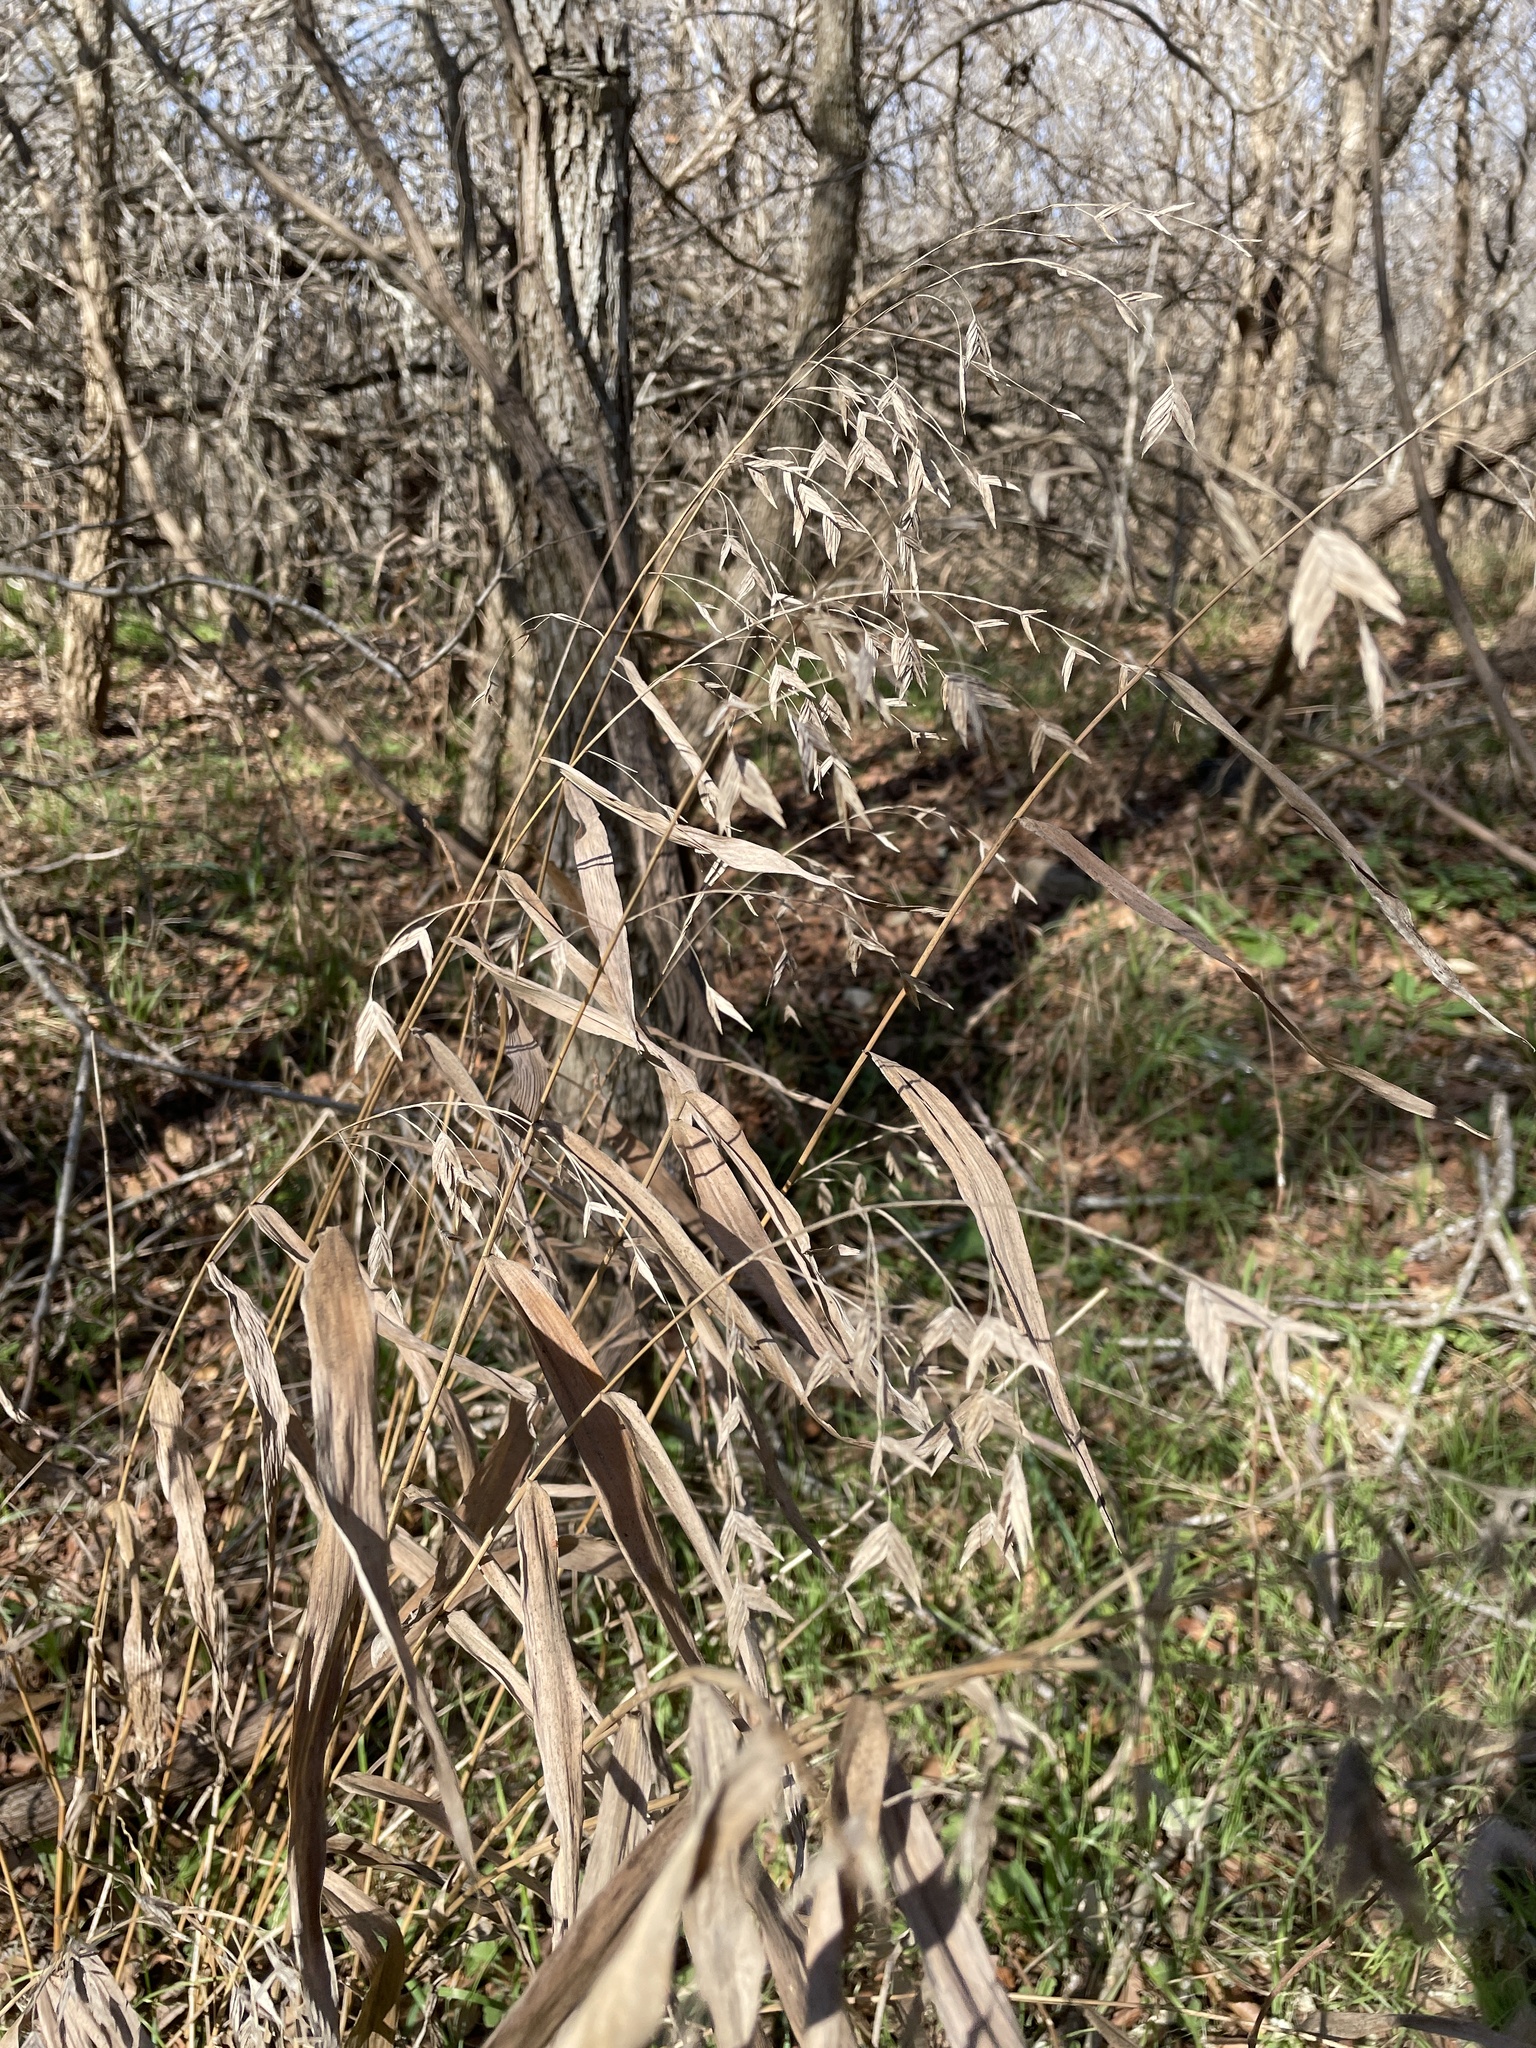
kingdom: Plantae
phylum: Tracheophyta
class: Liliopsida
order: Poales
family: Poaceae
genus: Chasmanthium
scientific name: Chasmanthium latifolium
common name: Broad-leaved chasmanthium
